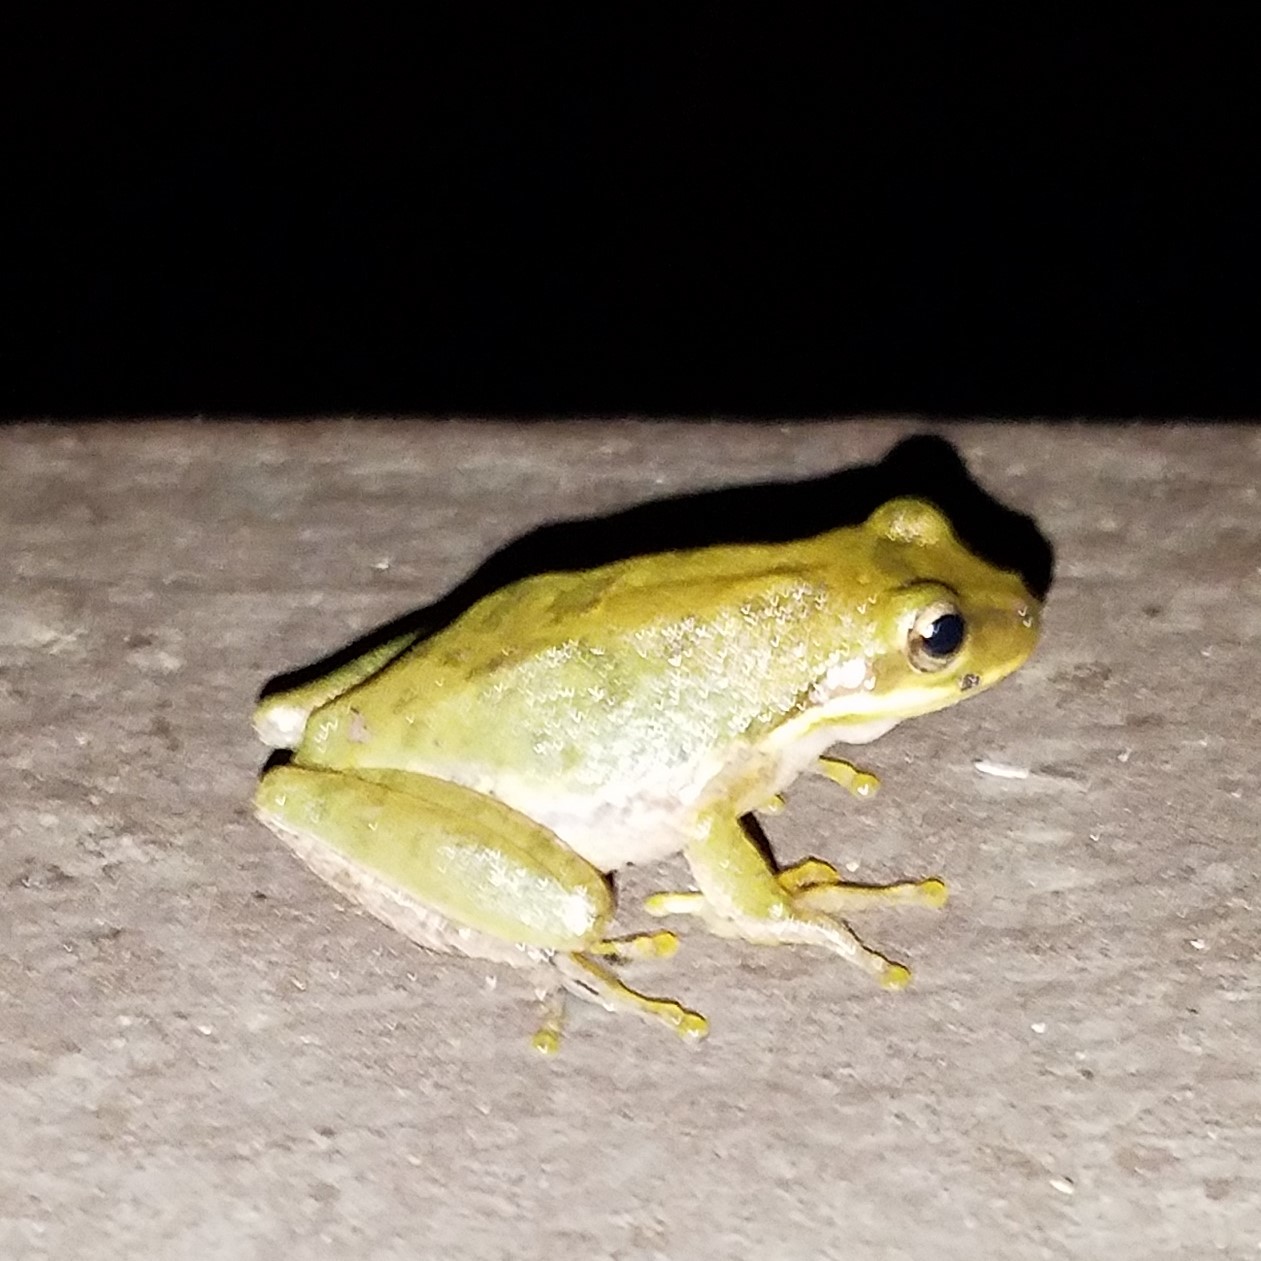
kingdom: Animalia
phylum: Chordata
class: Amphibia
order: Anura
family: Hylidae
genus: Dryophytes
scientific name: Dryophytes squirellus
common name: Squirrel treefrog
